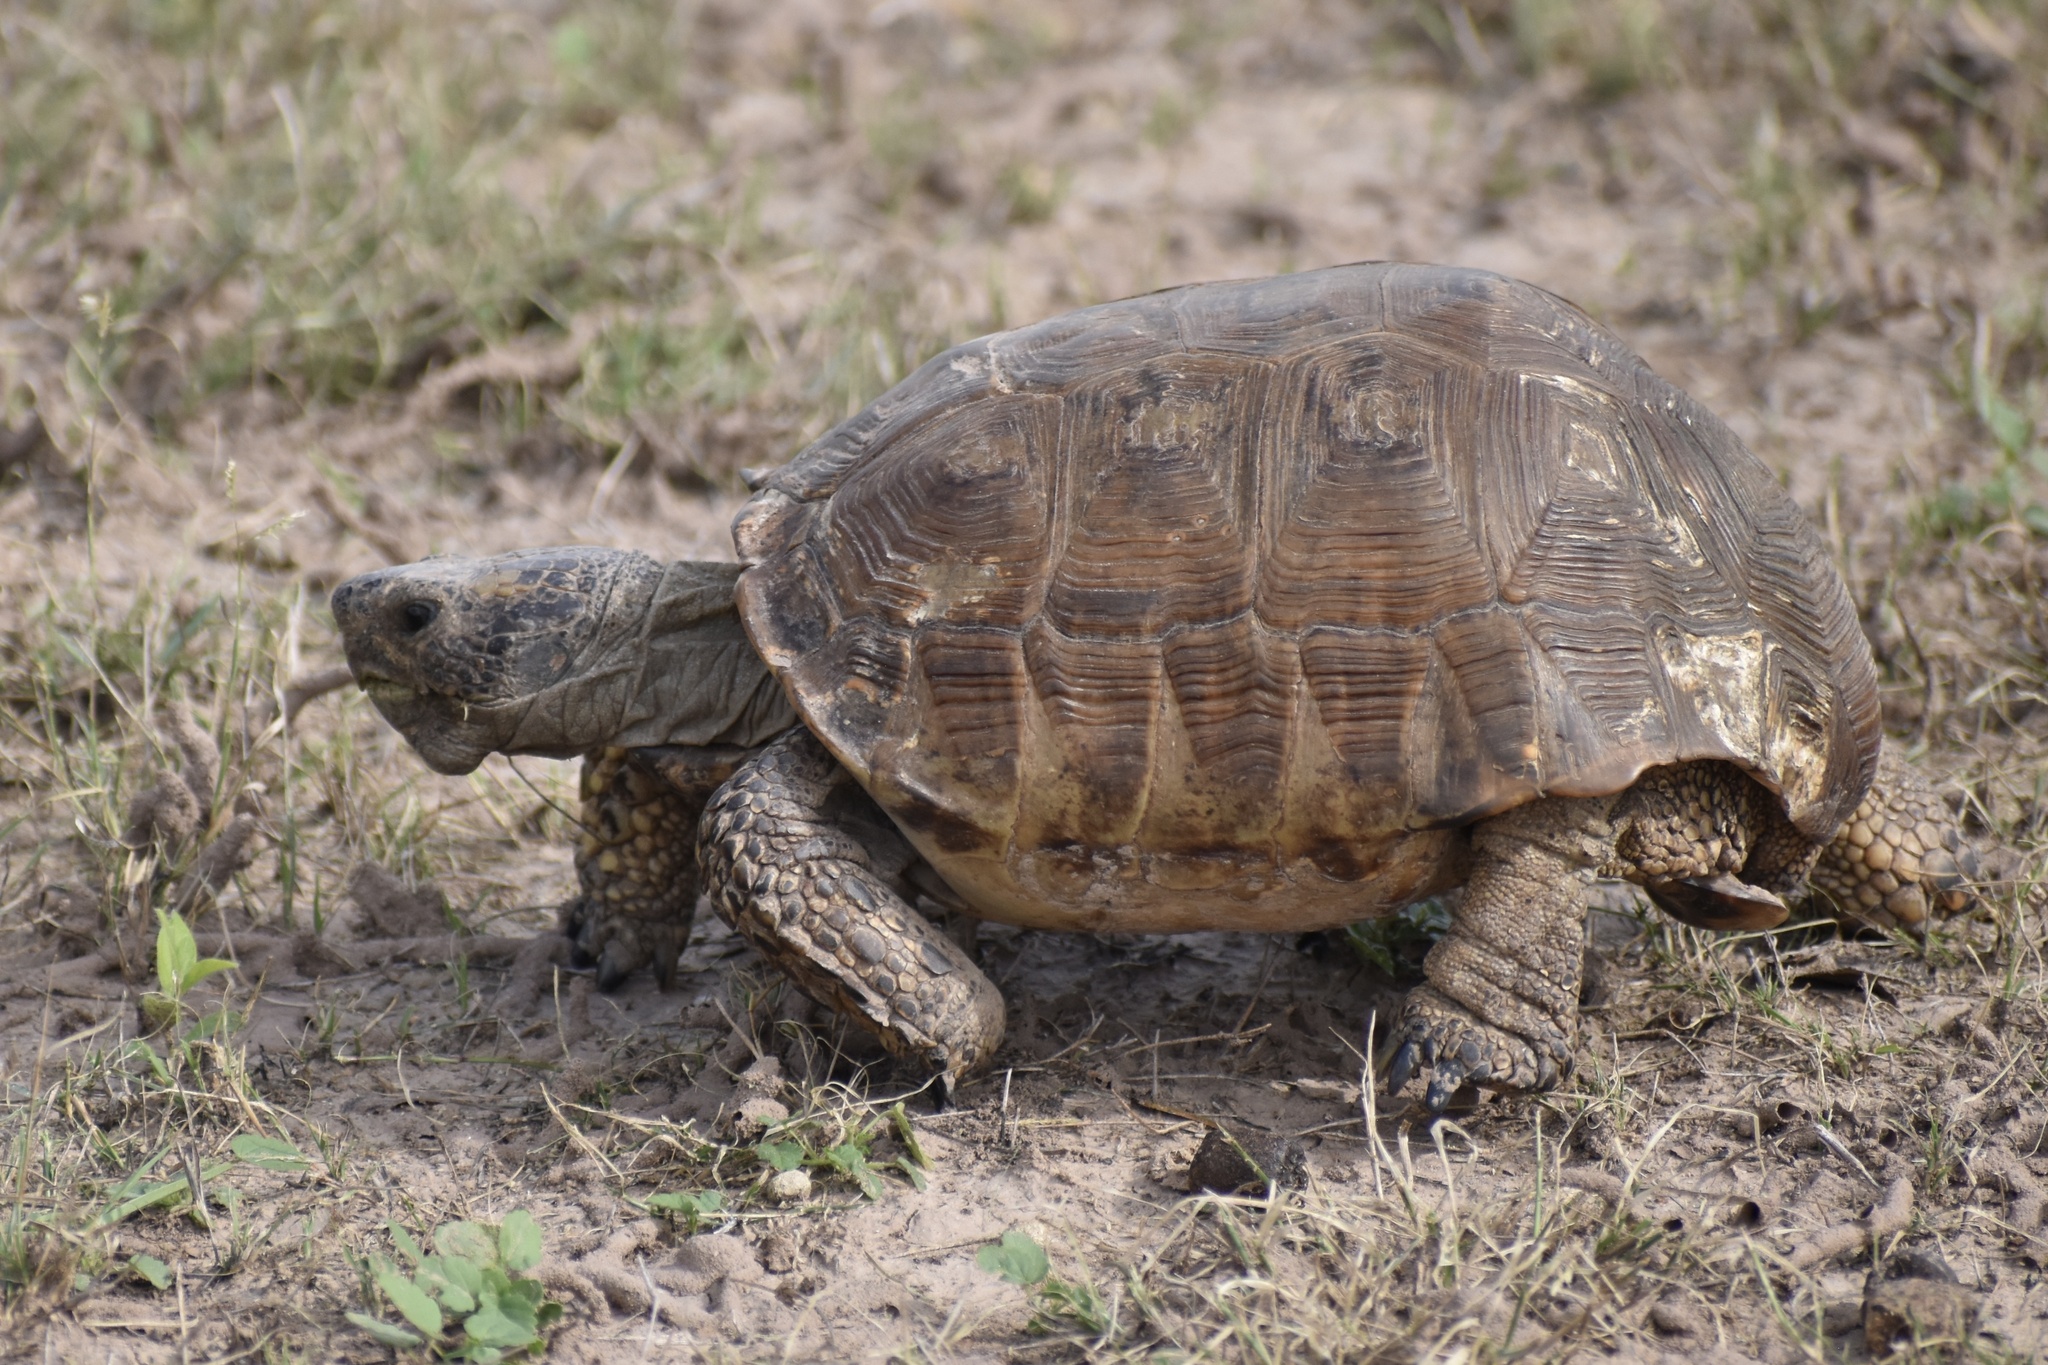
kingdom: Animalia
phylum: Chordata
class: Testudines
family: Testudinidae
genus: Gopherus
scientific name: Gopherus berlandieri
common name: Texas (gopher )tortoise
